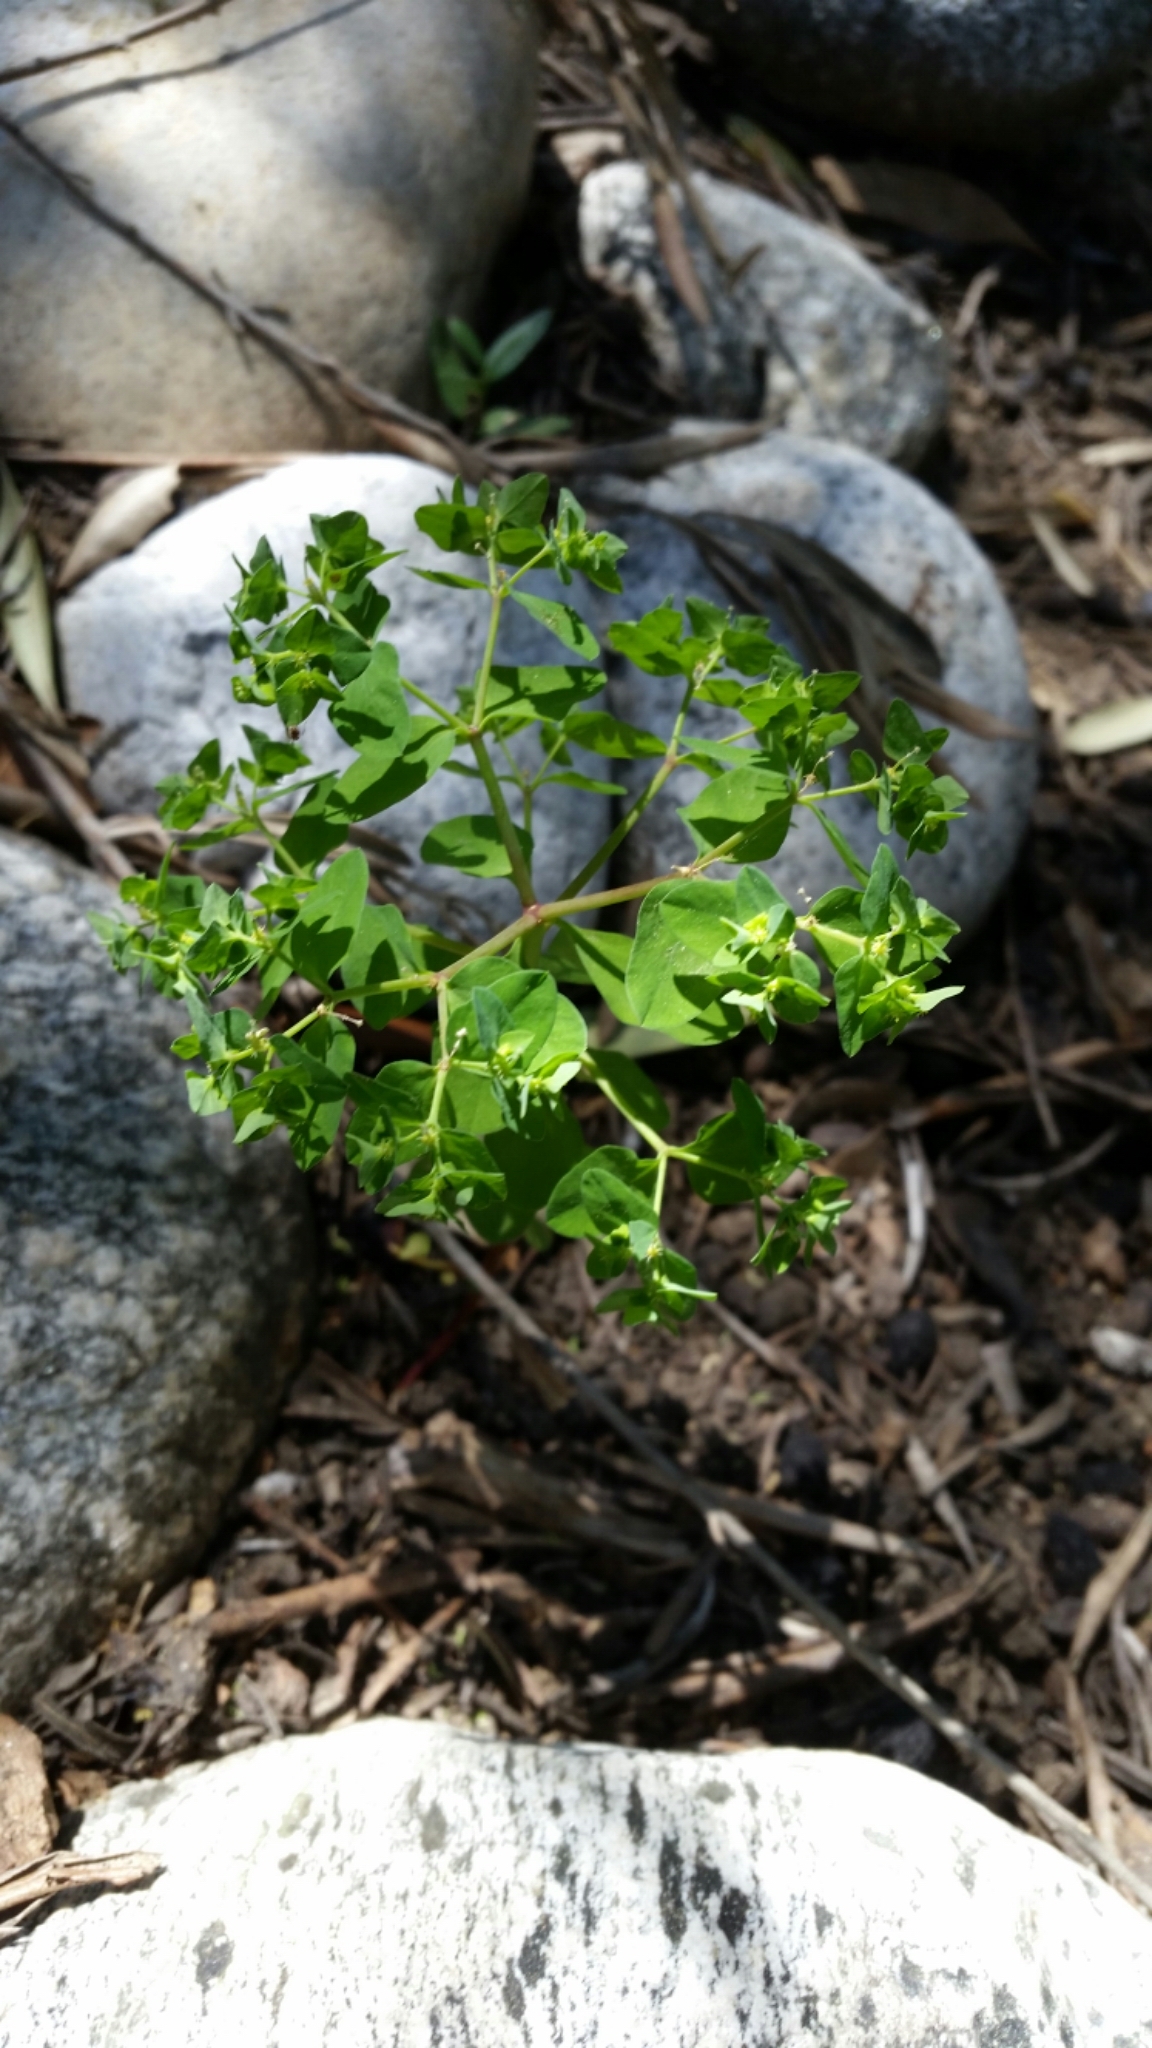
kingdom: Plantae
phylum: Tracheophyta
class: Magnoliopsida
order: Malpighiales
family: Euphorbiaceae
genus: Euphorbia
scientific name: Euphorbia peplus
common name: Petty spurge
